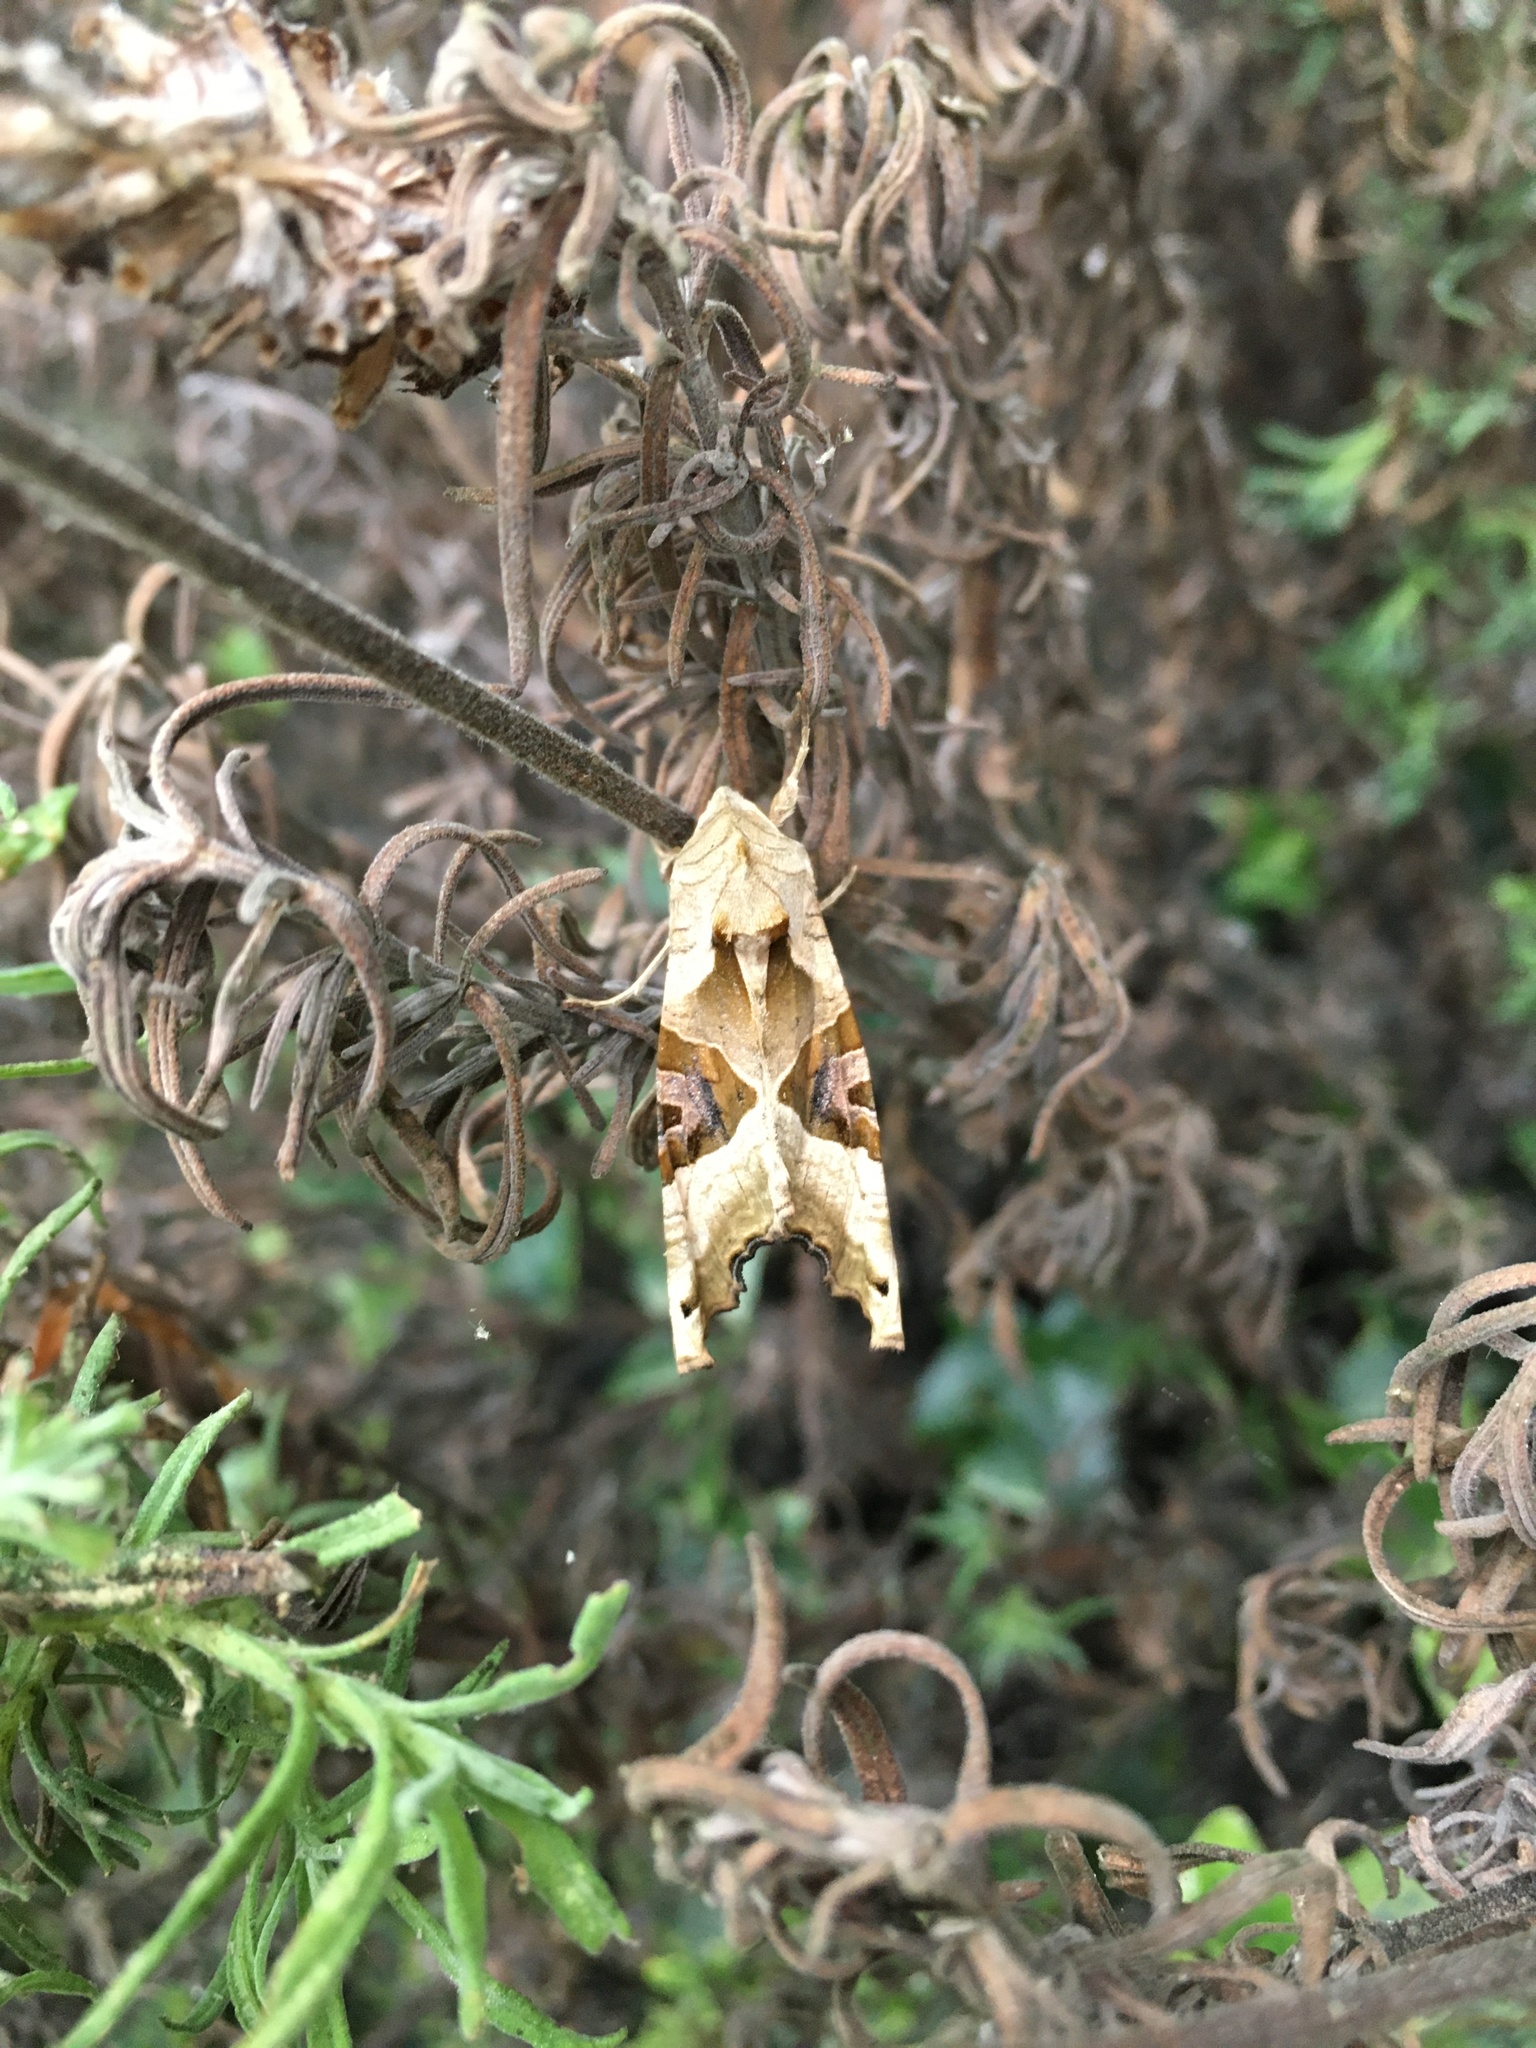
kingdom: Animalia
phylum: Arthropoda
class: Insecta
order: Lepidoptera
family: Noctuidae
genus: Phlogophora
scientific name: Phlogophora meticulosa
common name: Angle shades
